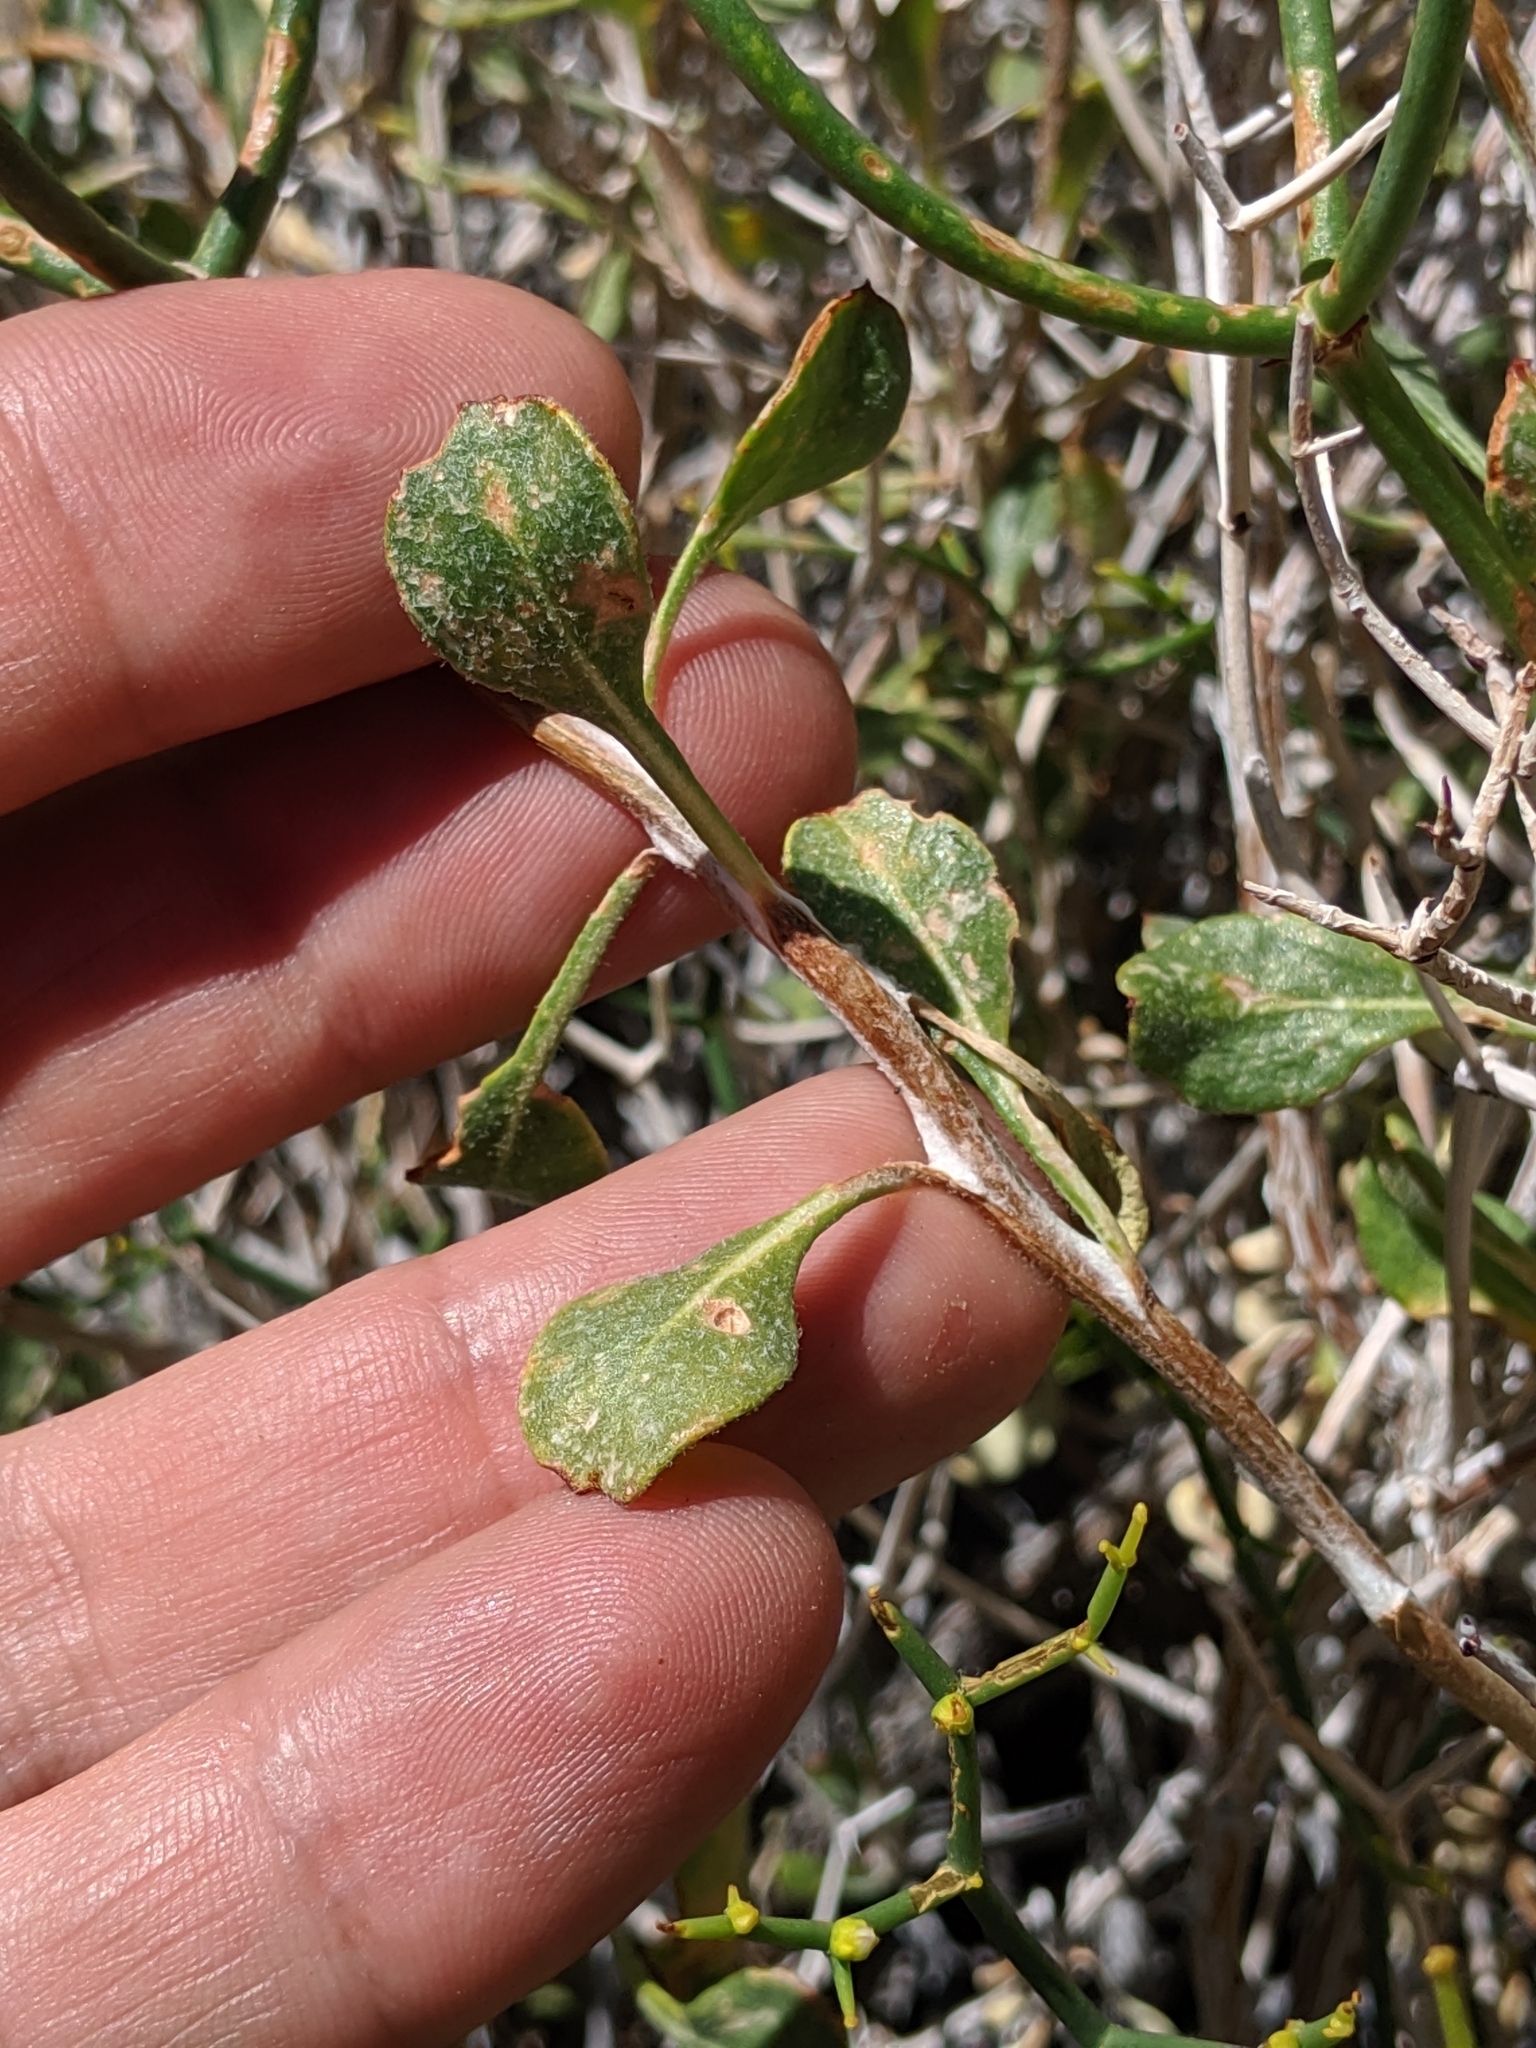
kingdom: Plantae
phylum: Tracheophyta
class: Magnoliopsida
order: Caryophyllales
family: Polygonaceae
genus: Eriogonum
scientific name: Eriogonum heermannii
